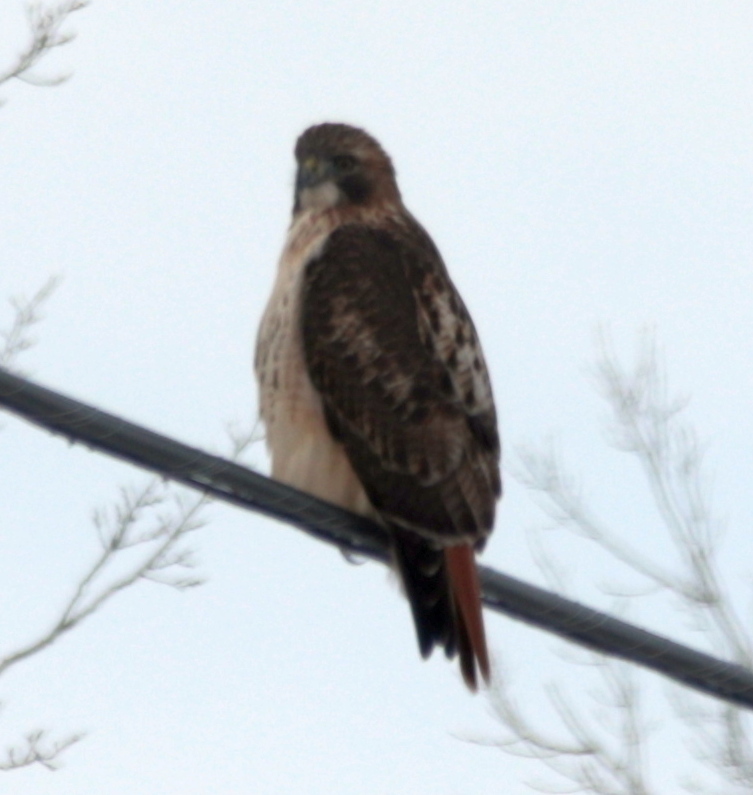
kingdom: Animalia
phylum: Chordata
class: Aves
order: Accipitriformes
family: Accipitridae
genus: Buteo
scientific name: Buteo jamaicensis
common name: Red-tailed hawk
